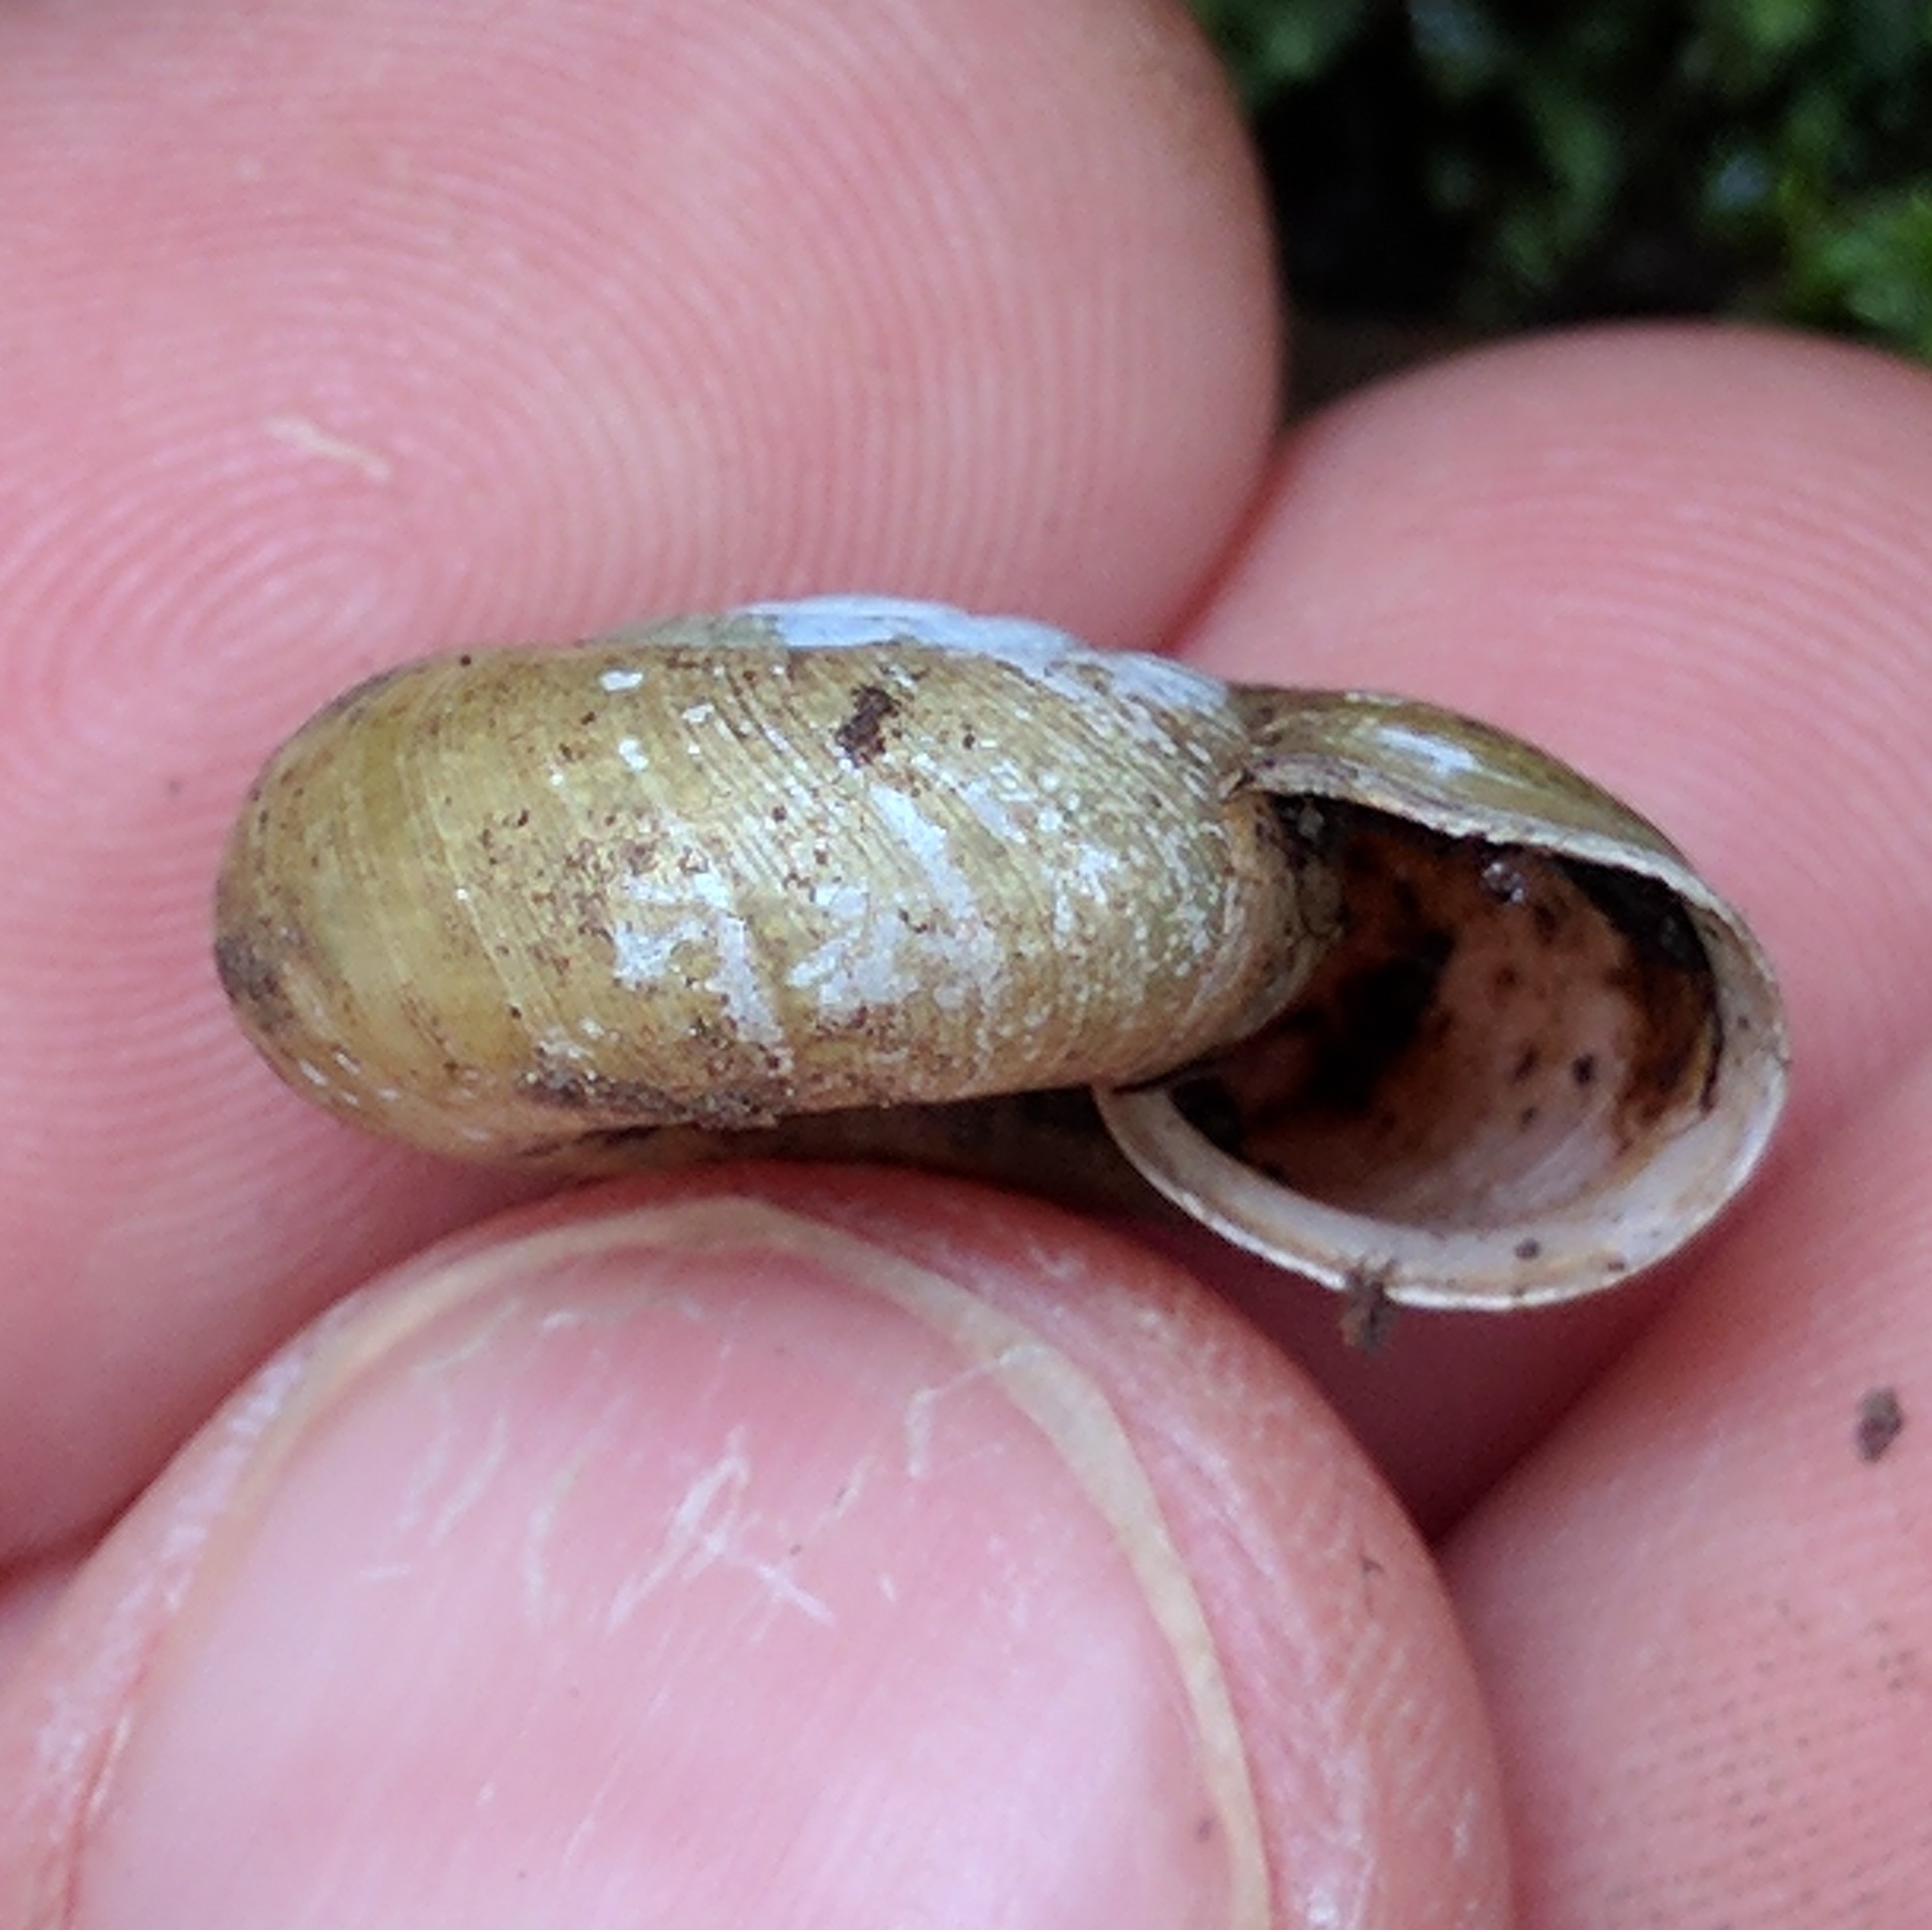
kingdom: Animalia
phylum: Mollusca
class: Gastropoda
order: Stylommatophora
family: Haplotrematidae
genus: Haplotrema
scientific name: Haplotrema minimum
